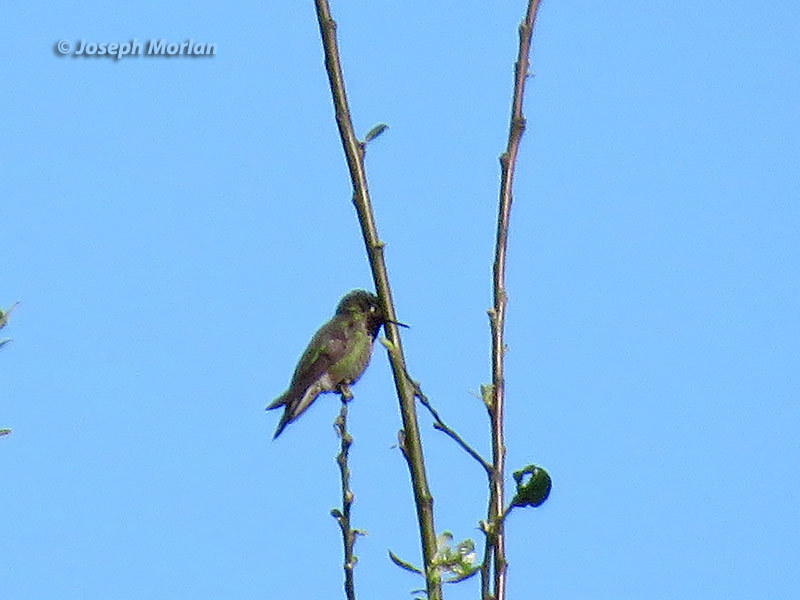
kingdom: Animalia
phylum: Chordata
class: Aves
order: Apodiformes
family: Trochilidae
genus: Calypte
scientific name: Calypte anna
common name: Anna's hummingbird
